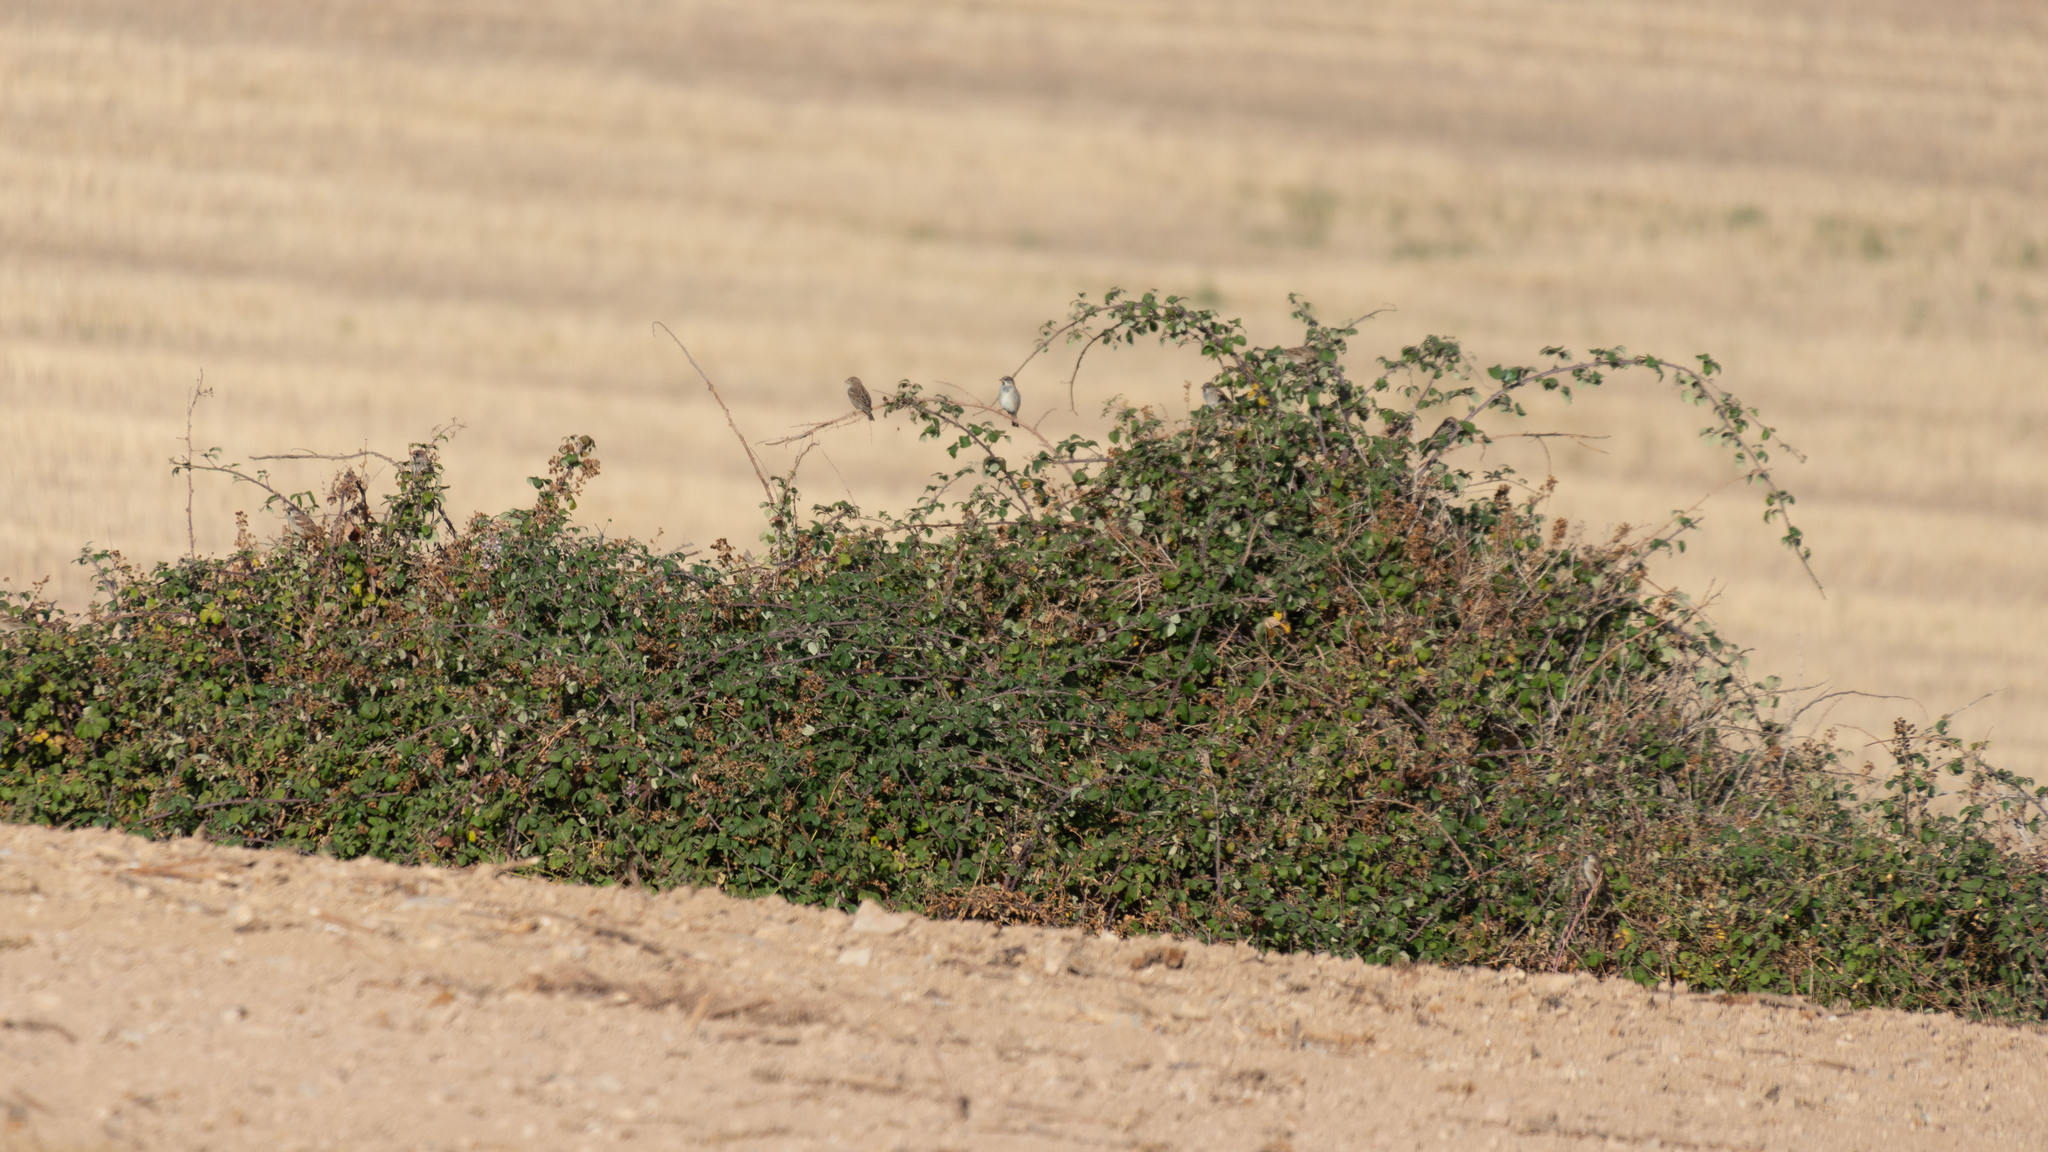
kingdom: Animalia
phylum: Chordata
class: Aves
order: Passeriformes
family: Passeridae
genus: Passer
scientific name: Passer domesticus
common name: House sparrow
